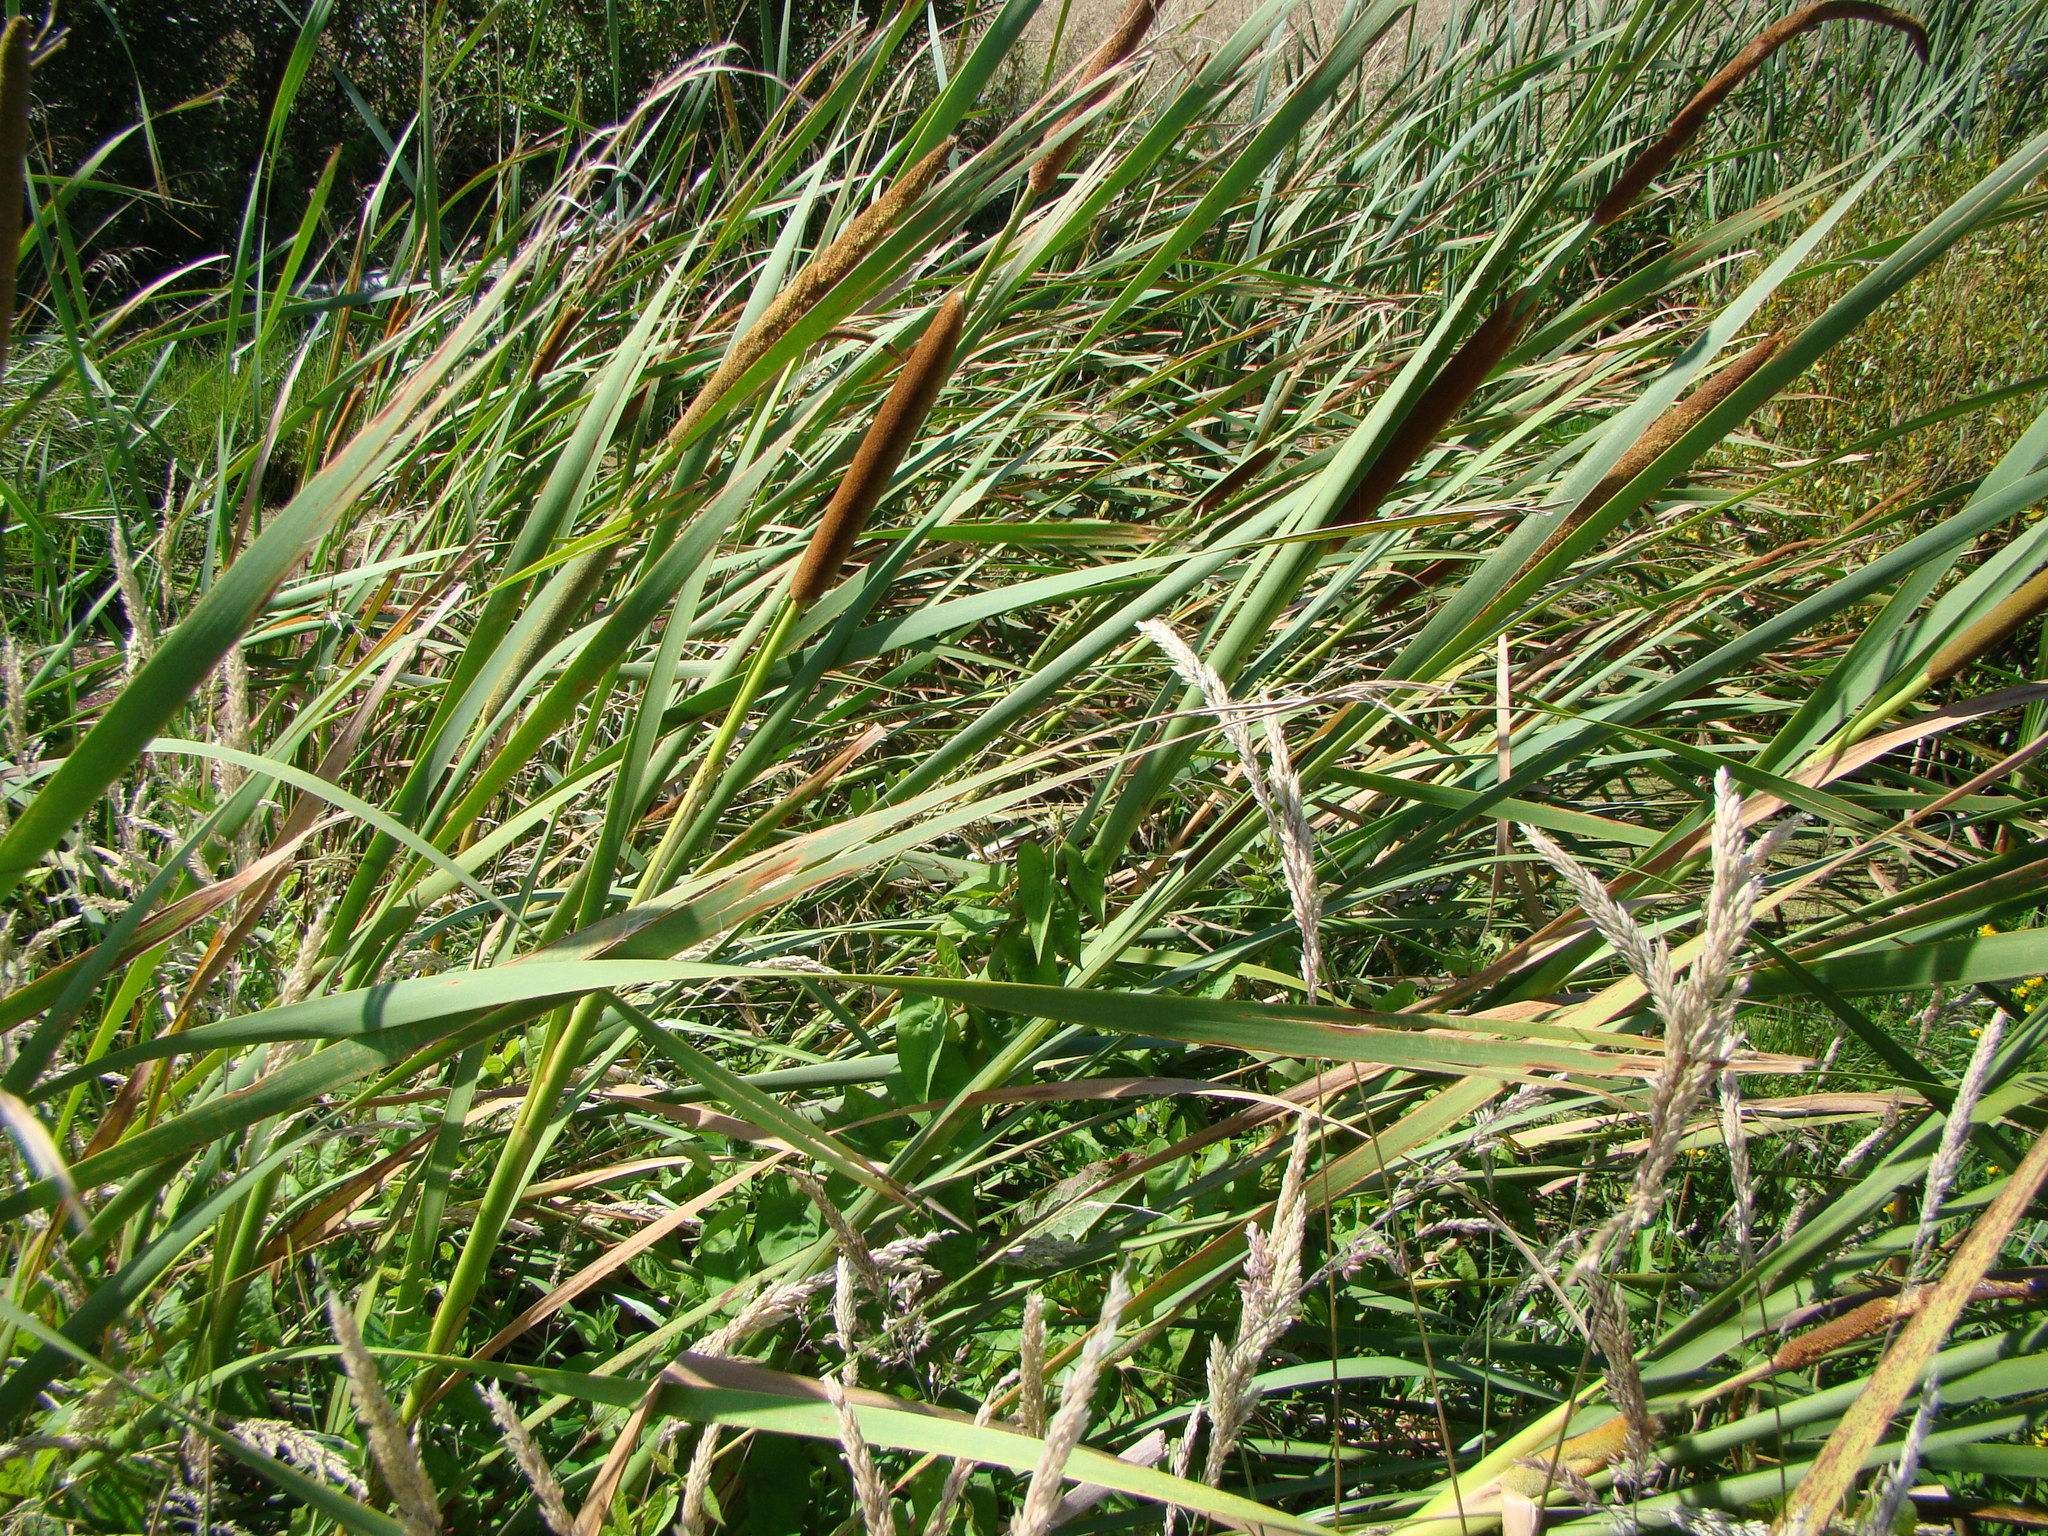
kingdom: Plantae
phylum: Tracheophyta
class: Liliopsida
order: Poales
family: Typhaceae
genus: Typha
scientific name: Typha orientalis
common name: Bullrush
